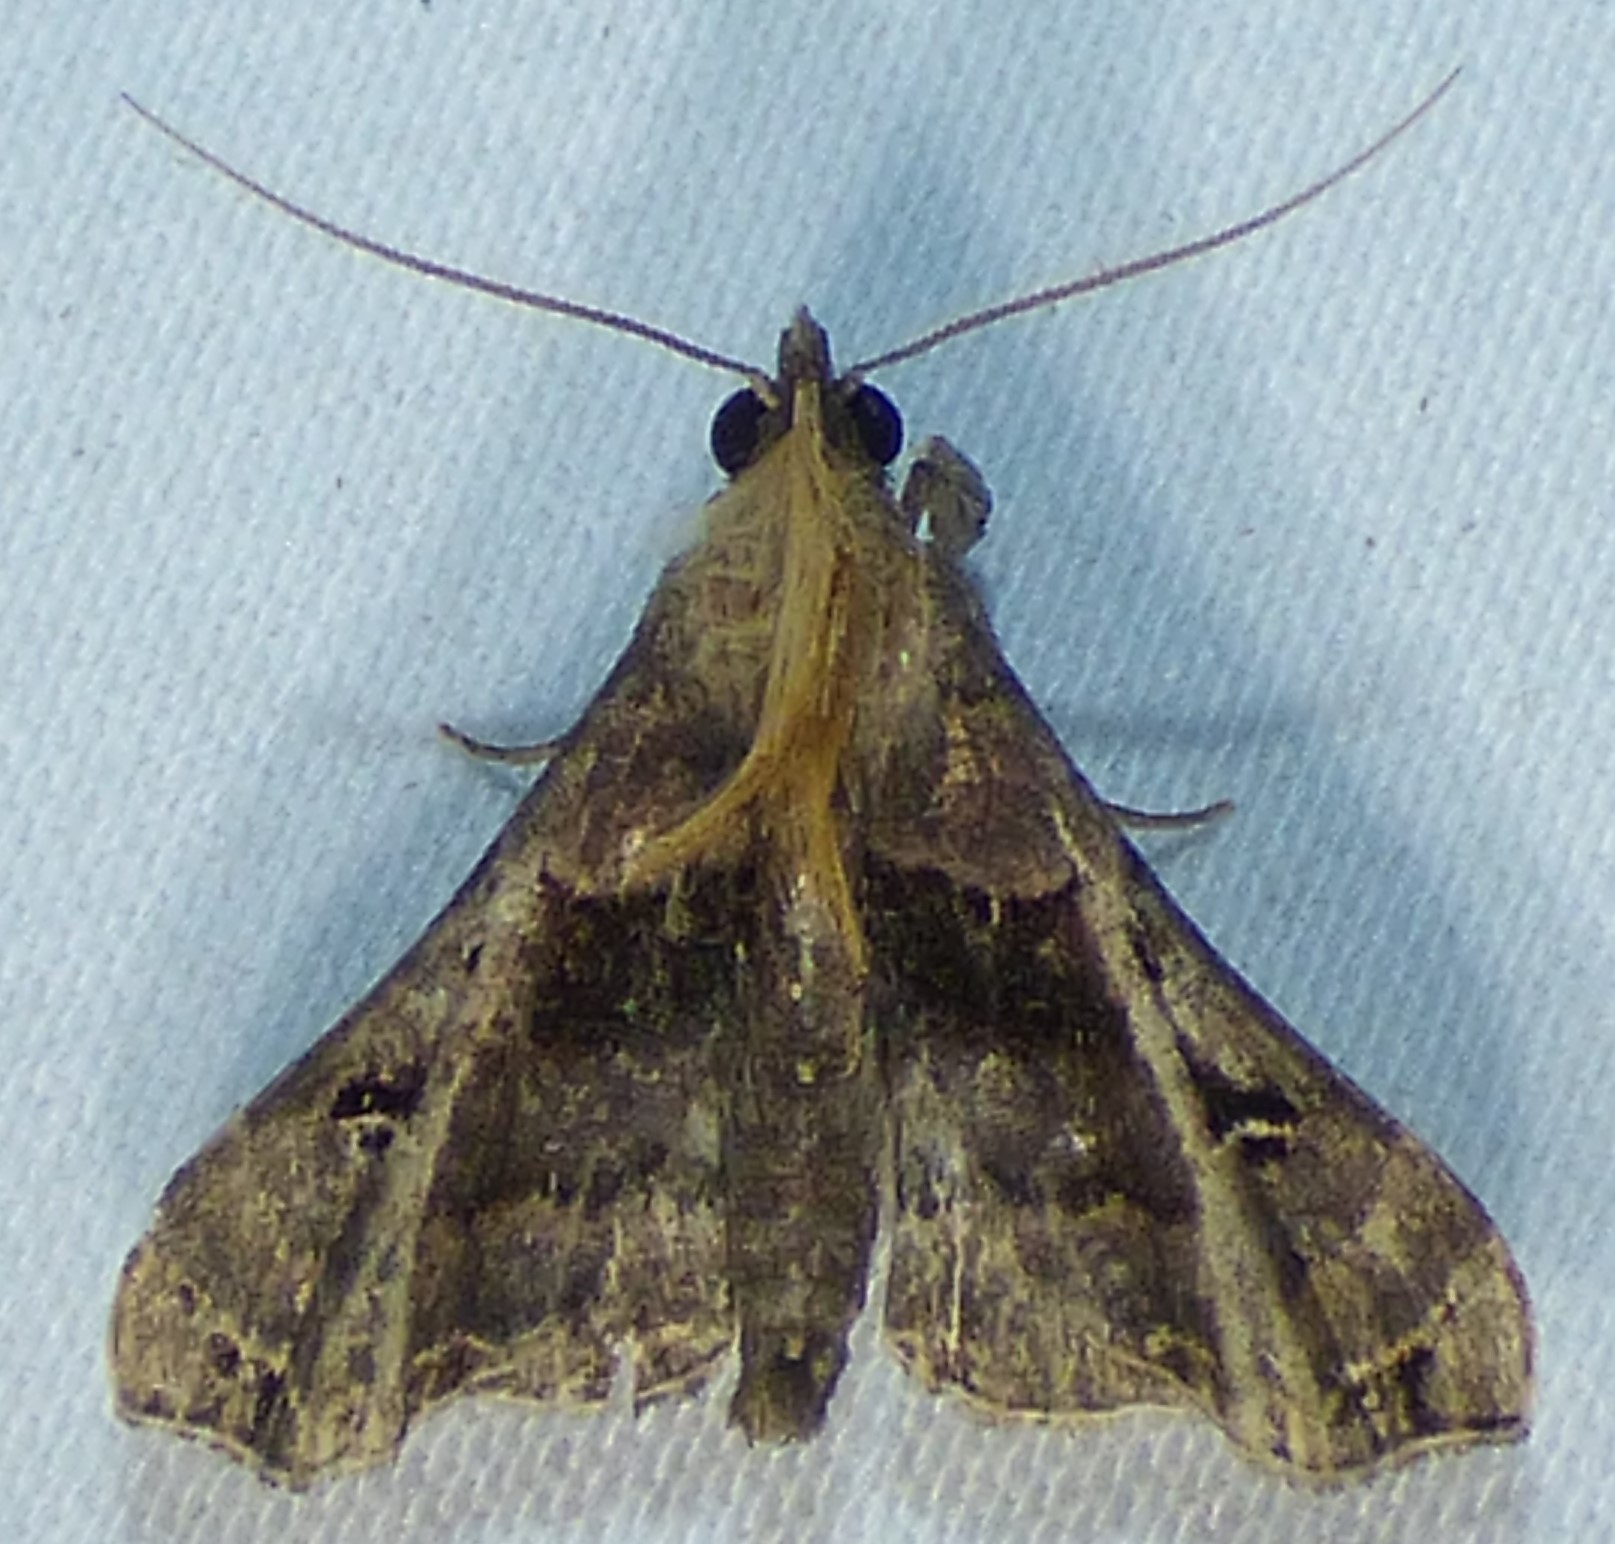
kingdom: Animalia
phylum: Arthropoda
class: Insecta
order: Lepidoptera
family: Erebidae
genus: Palthis
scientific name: Palthis asopialis
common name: Faint-spotted palthis moth
